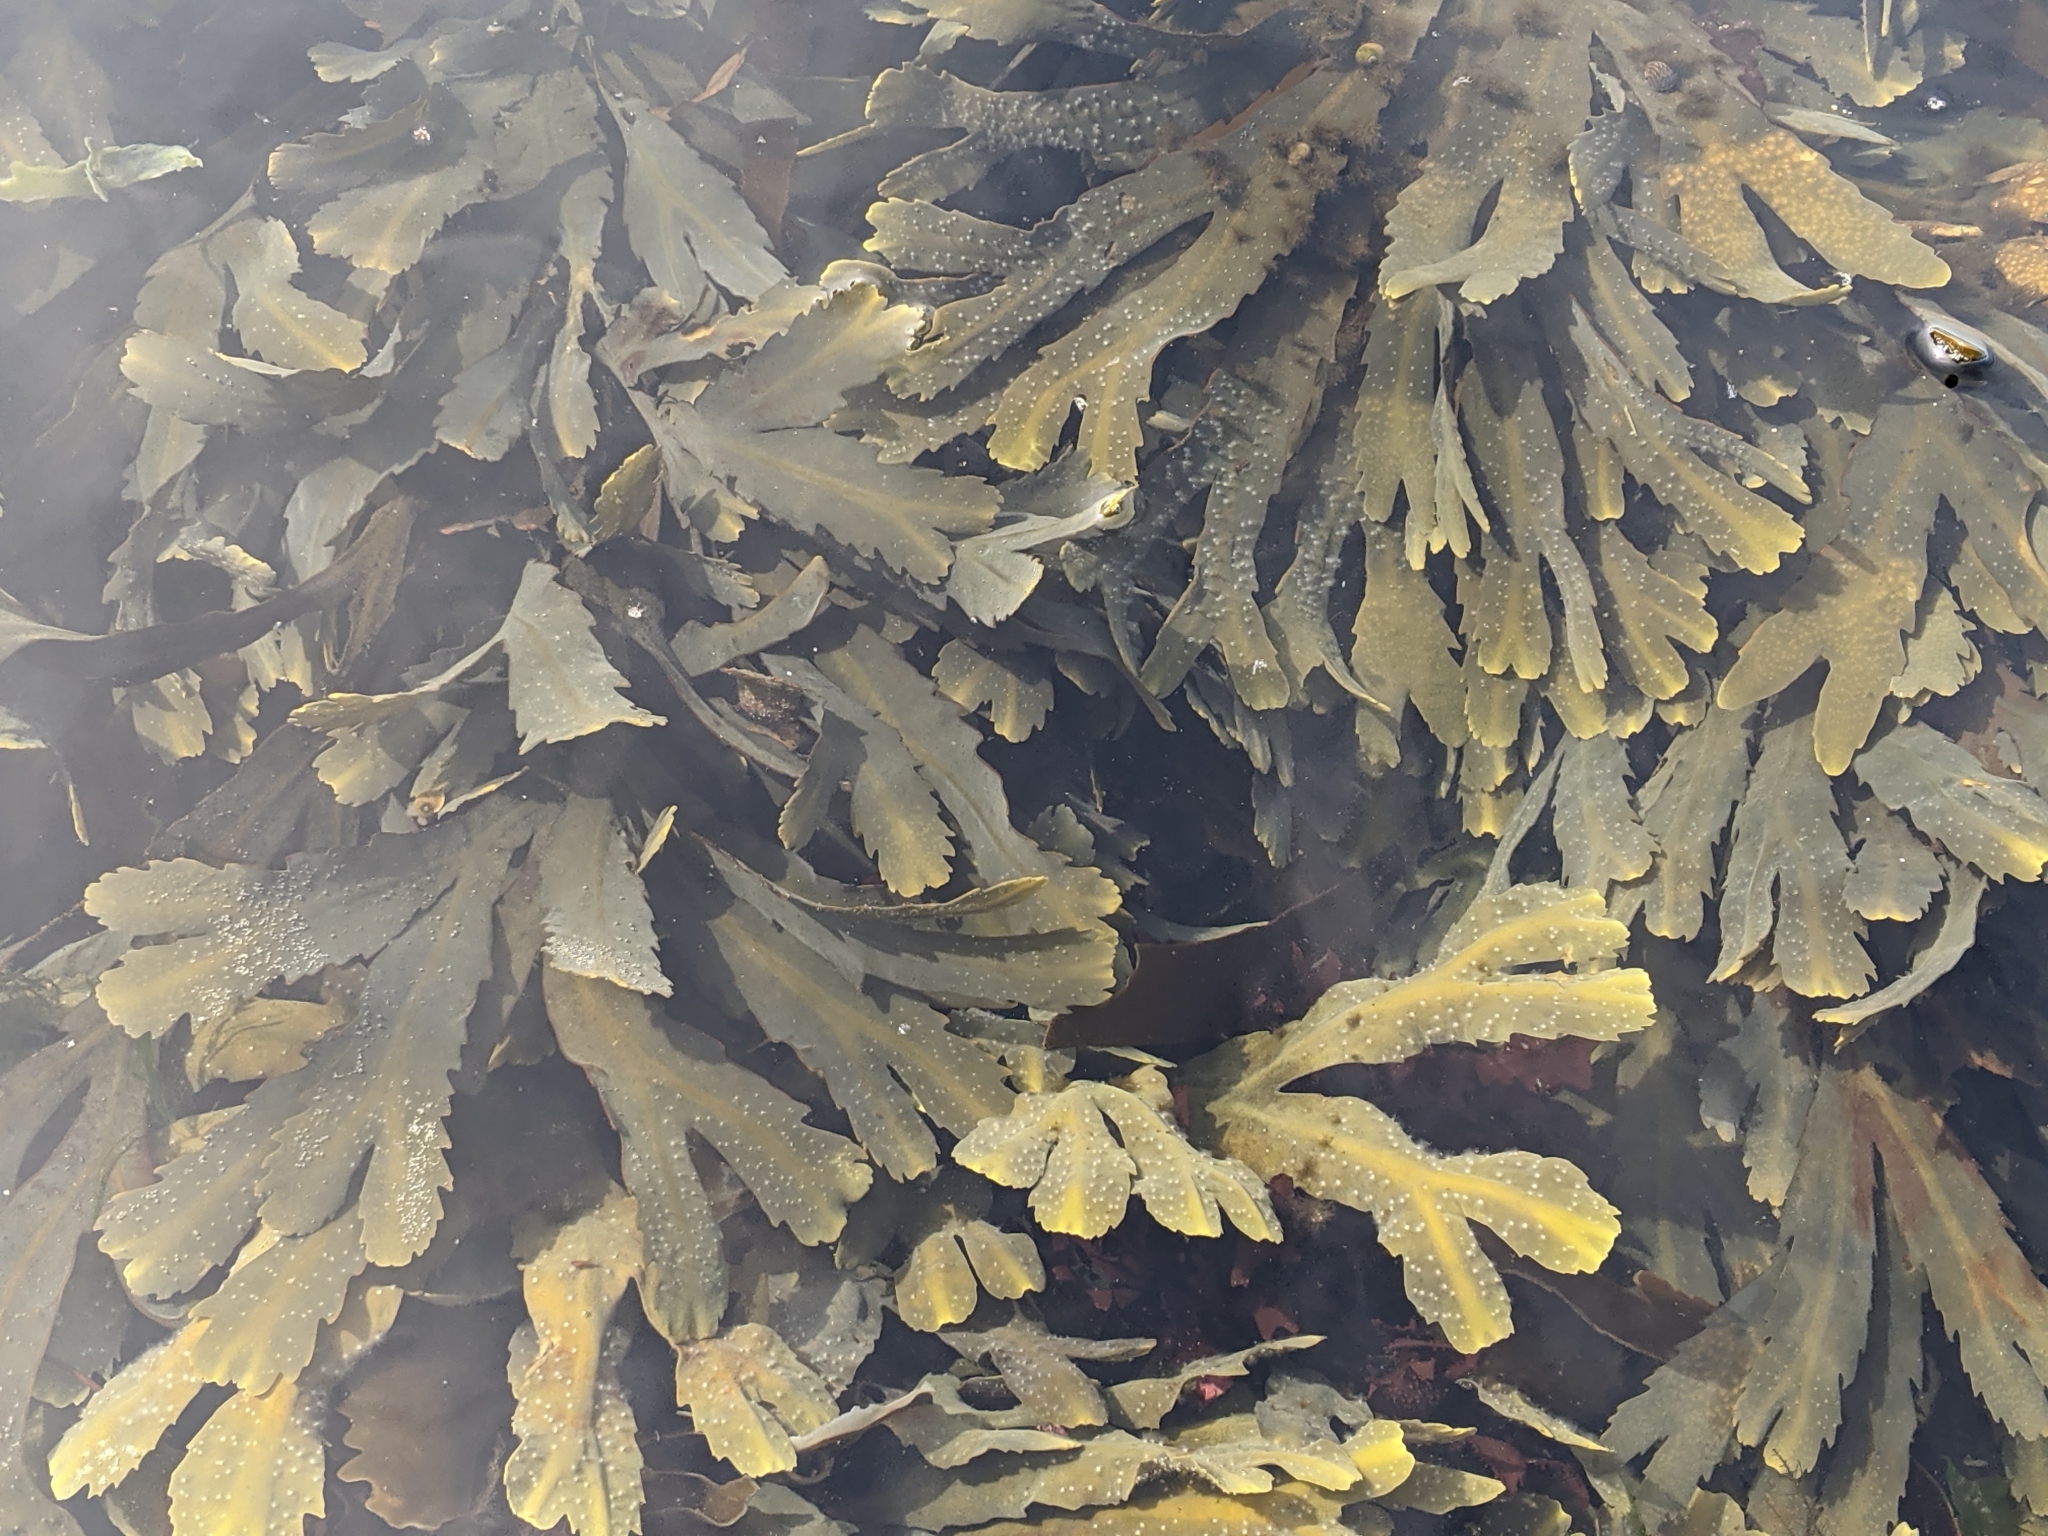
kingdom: Chromista
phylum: Ochrophyta
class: Phaeophyceae
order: Fucales
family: Fucaceae
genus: Fucus
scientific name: Fucus serratus
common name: Toothed wrack
